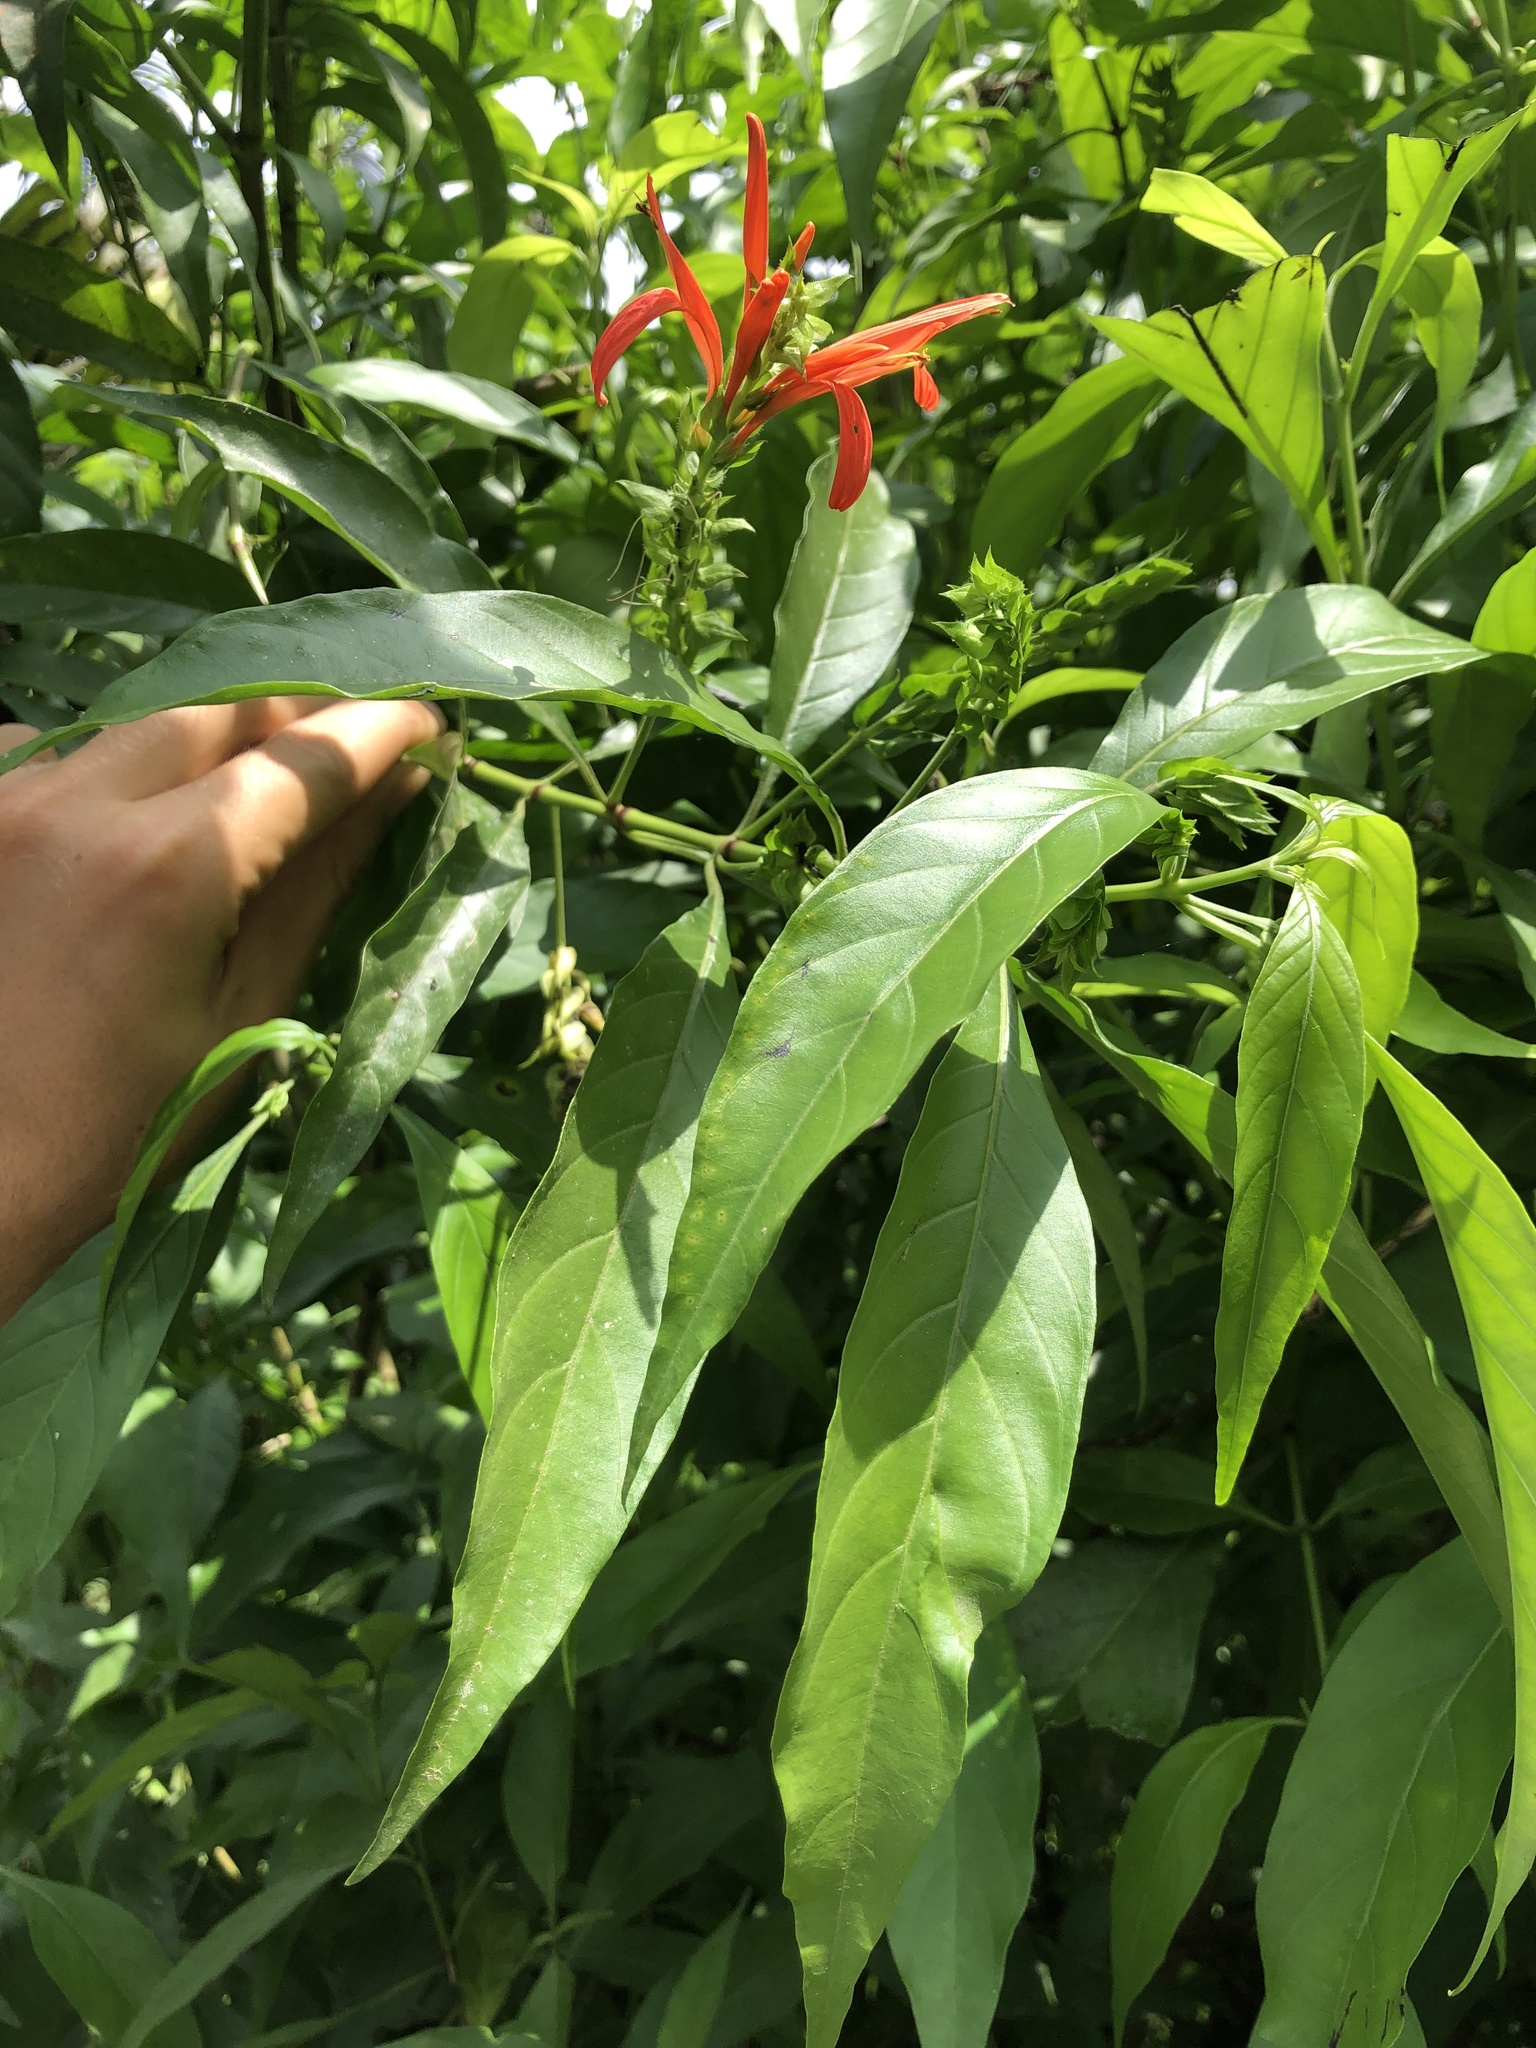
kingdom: Plantae
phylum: Tracheophyta
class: Magnoliopsida
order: Lamiales
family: Acanthaceae
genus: Dianthera
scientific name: Dianthera secunda
